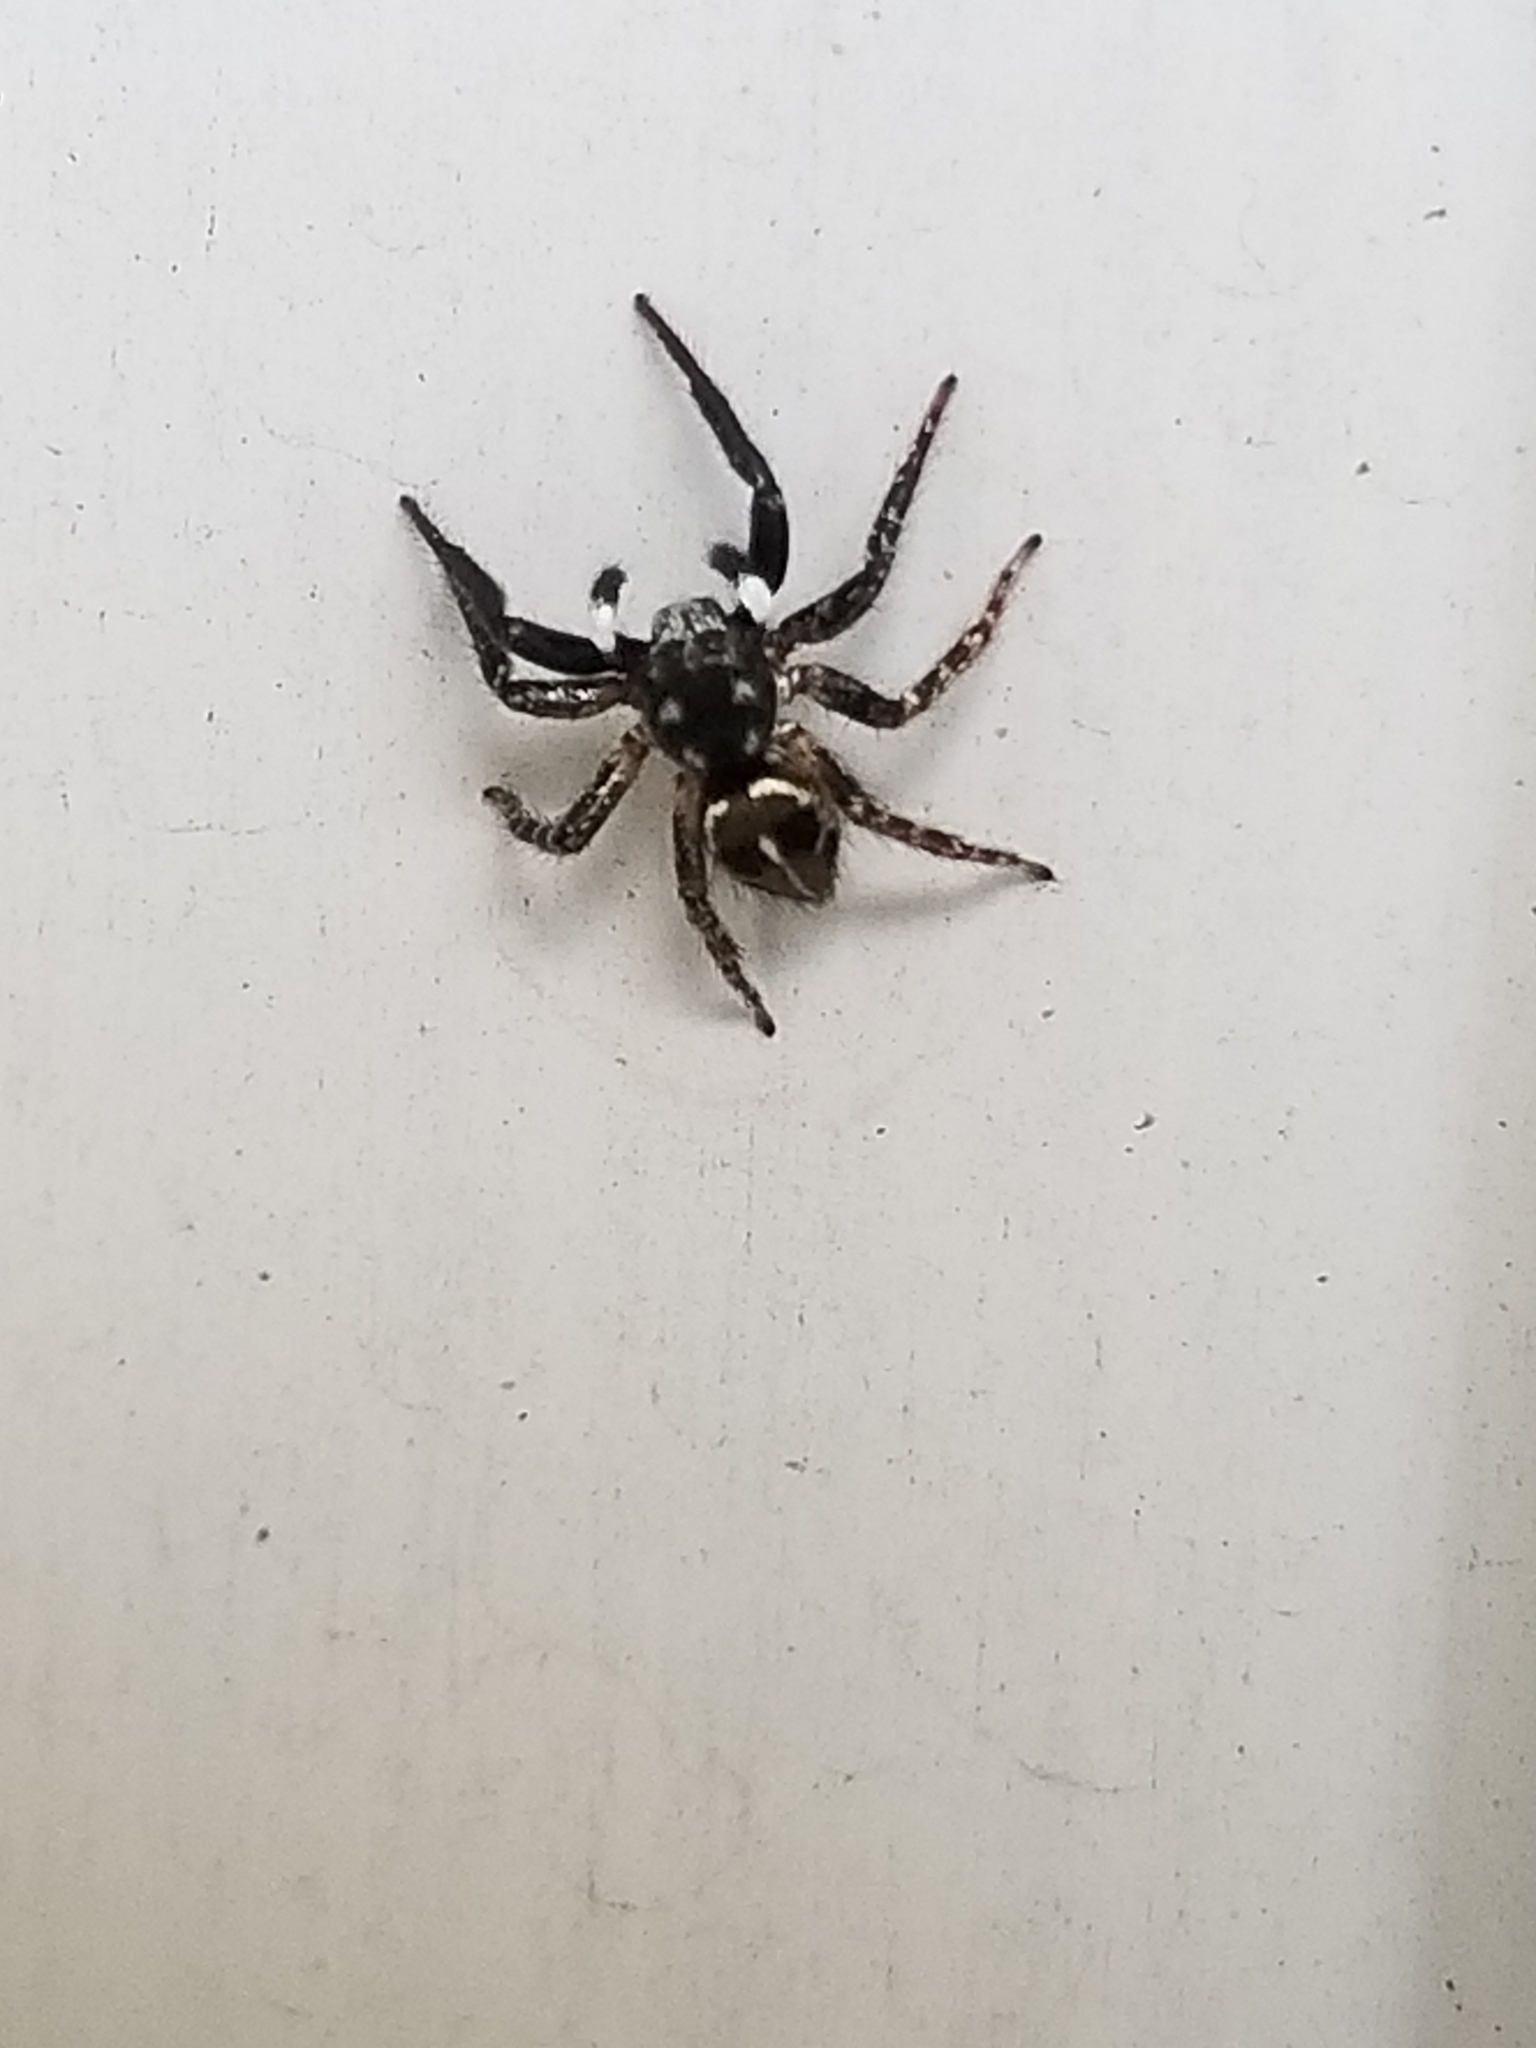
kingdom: Animalia
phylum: Arthropoda
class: Arachnida
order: Araneae
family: Salticidae
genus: Anasaitis
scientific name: Anasaitis canosa
